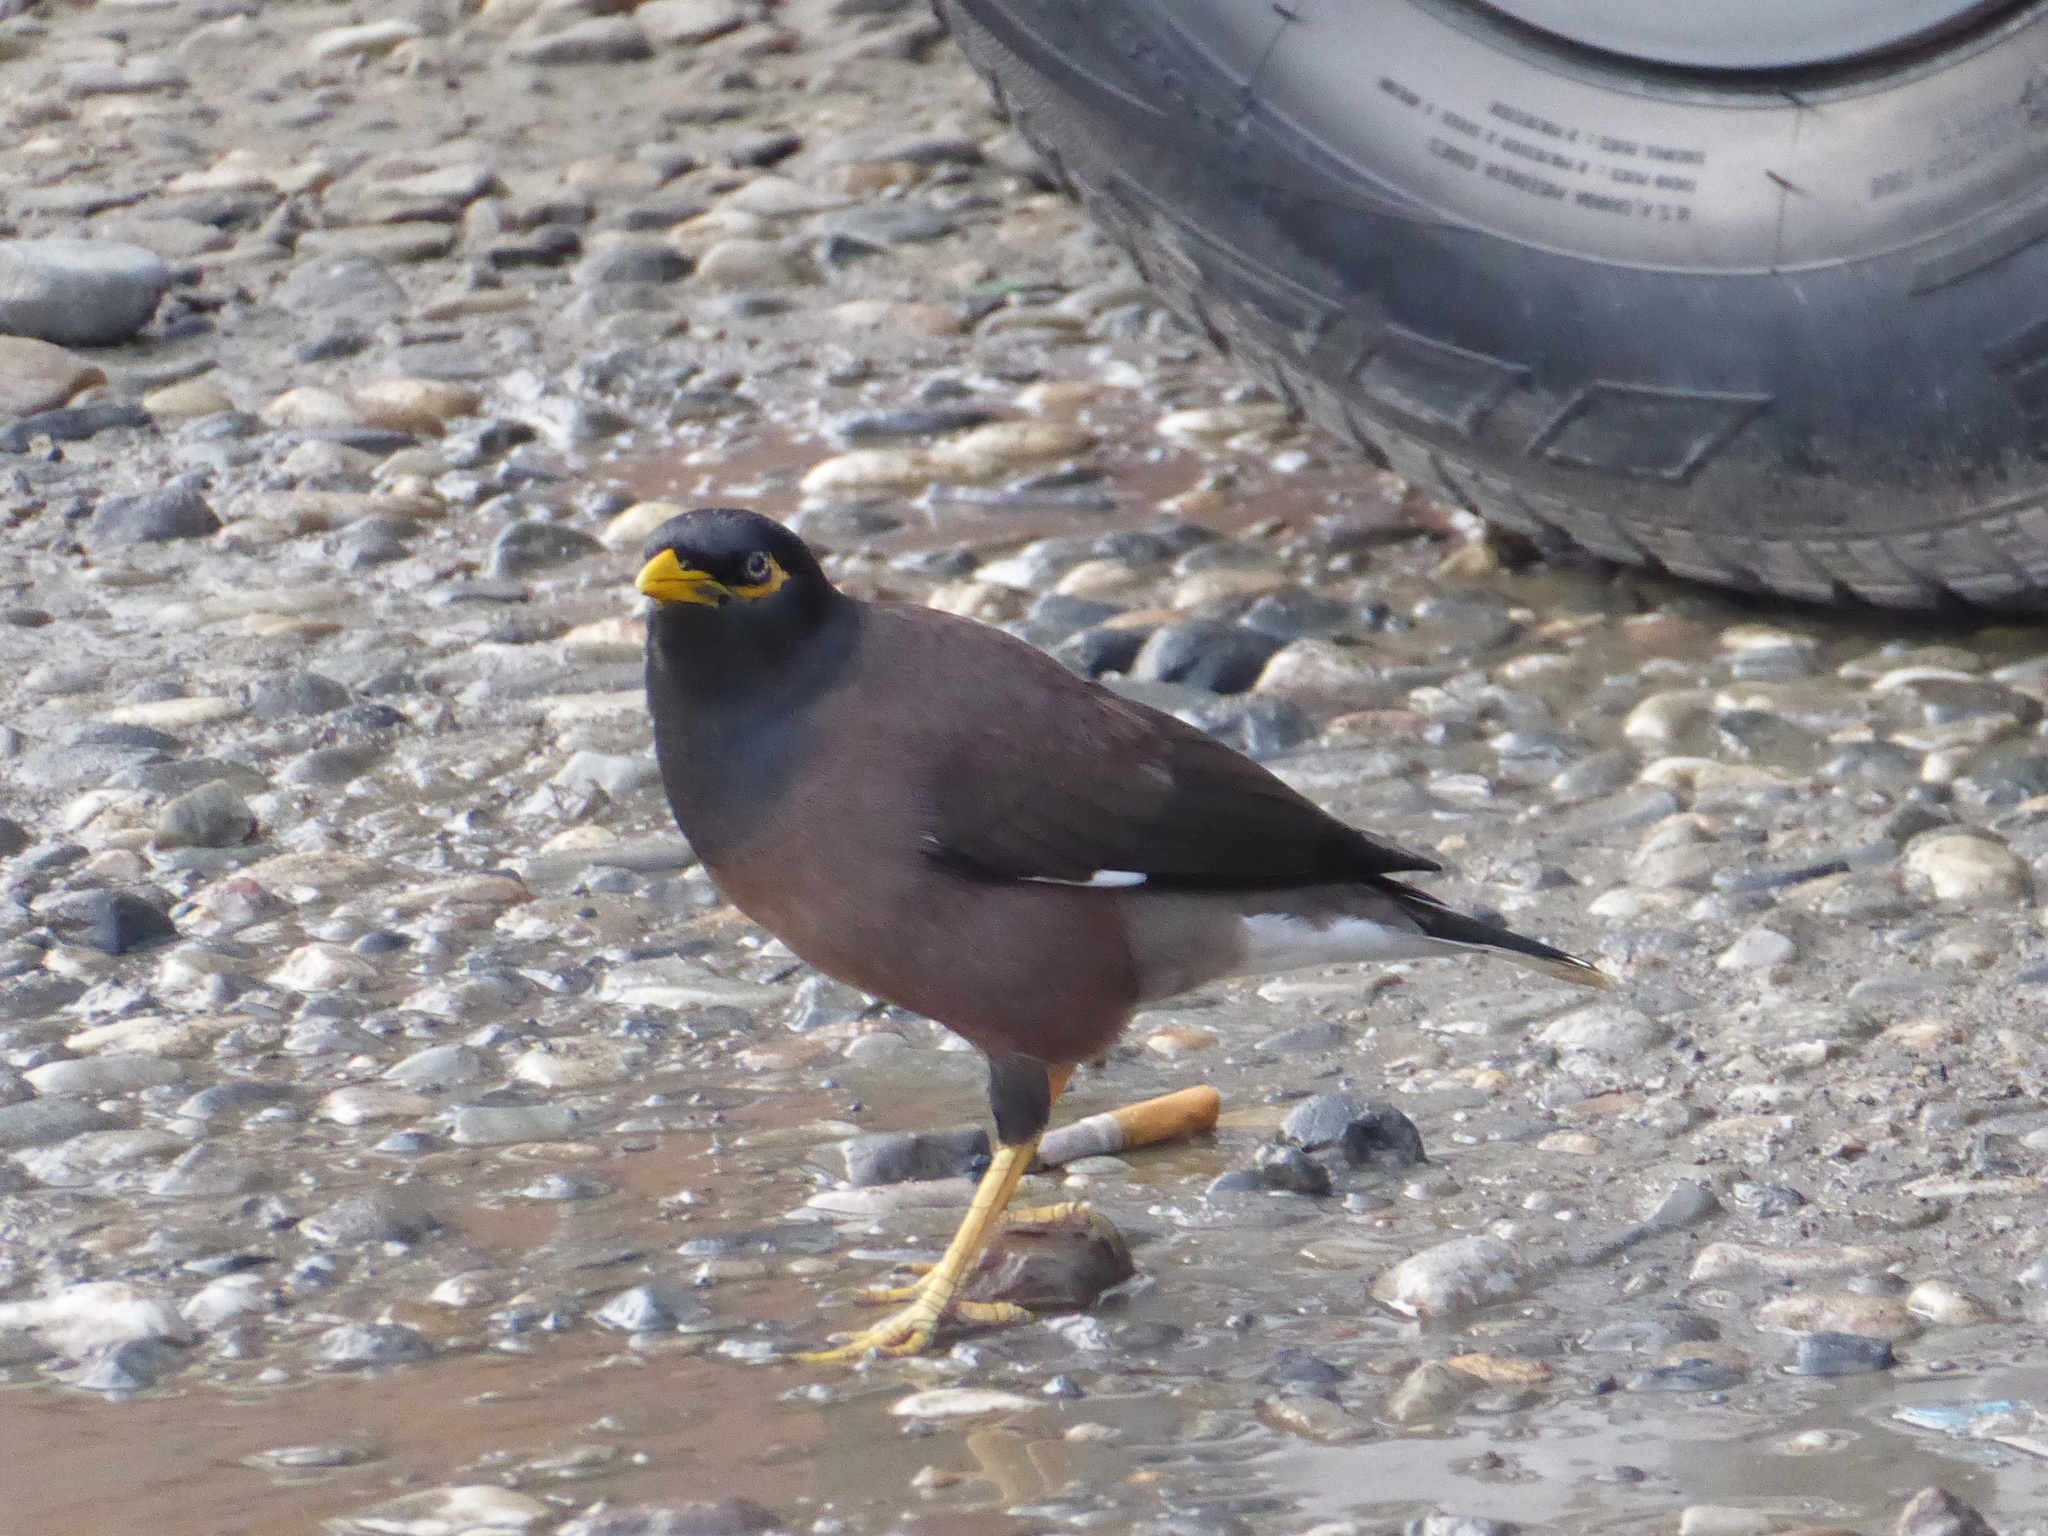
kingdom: Animalia
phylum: Chordata
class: Aves
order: Passeriformes
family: Sturnidae
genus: Acridotheres
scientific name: Acridotheres tristis
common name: Common myna
